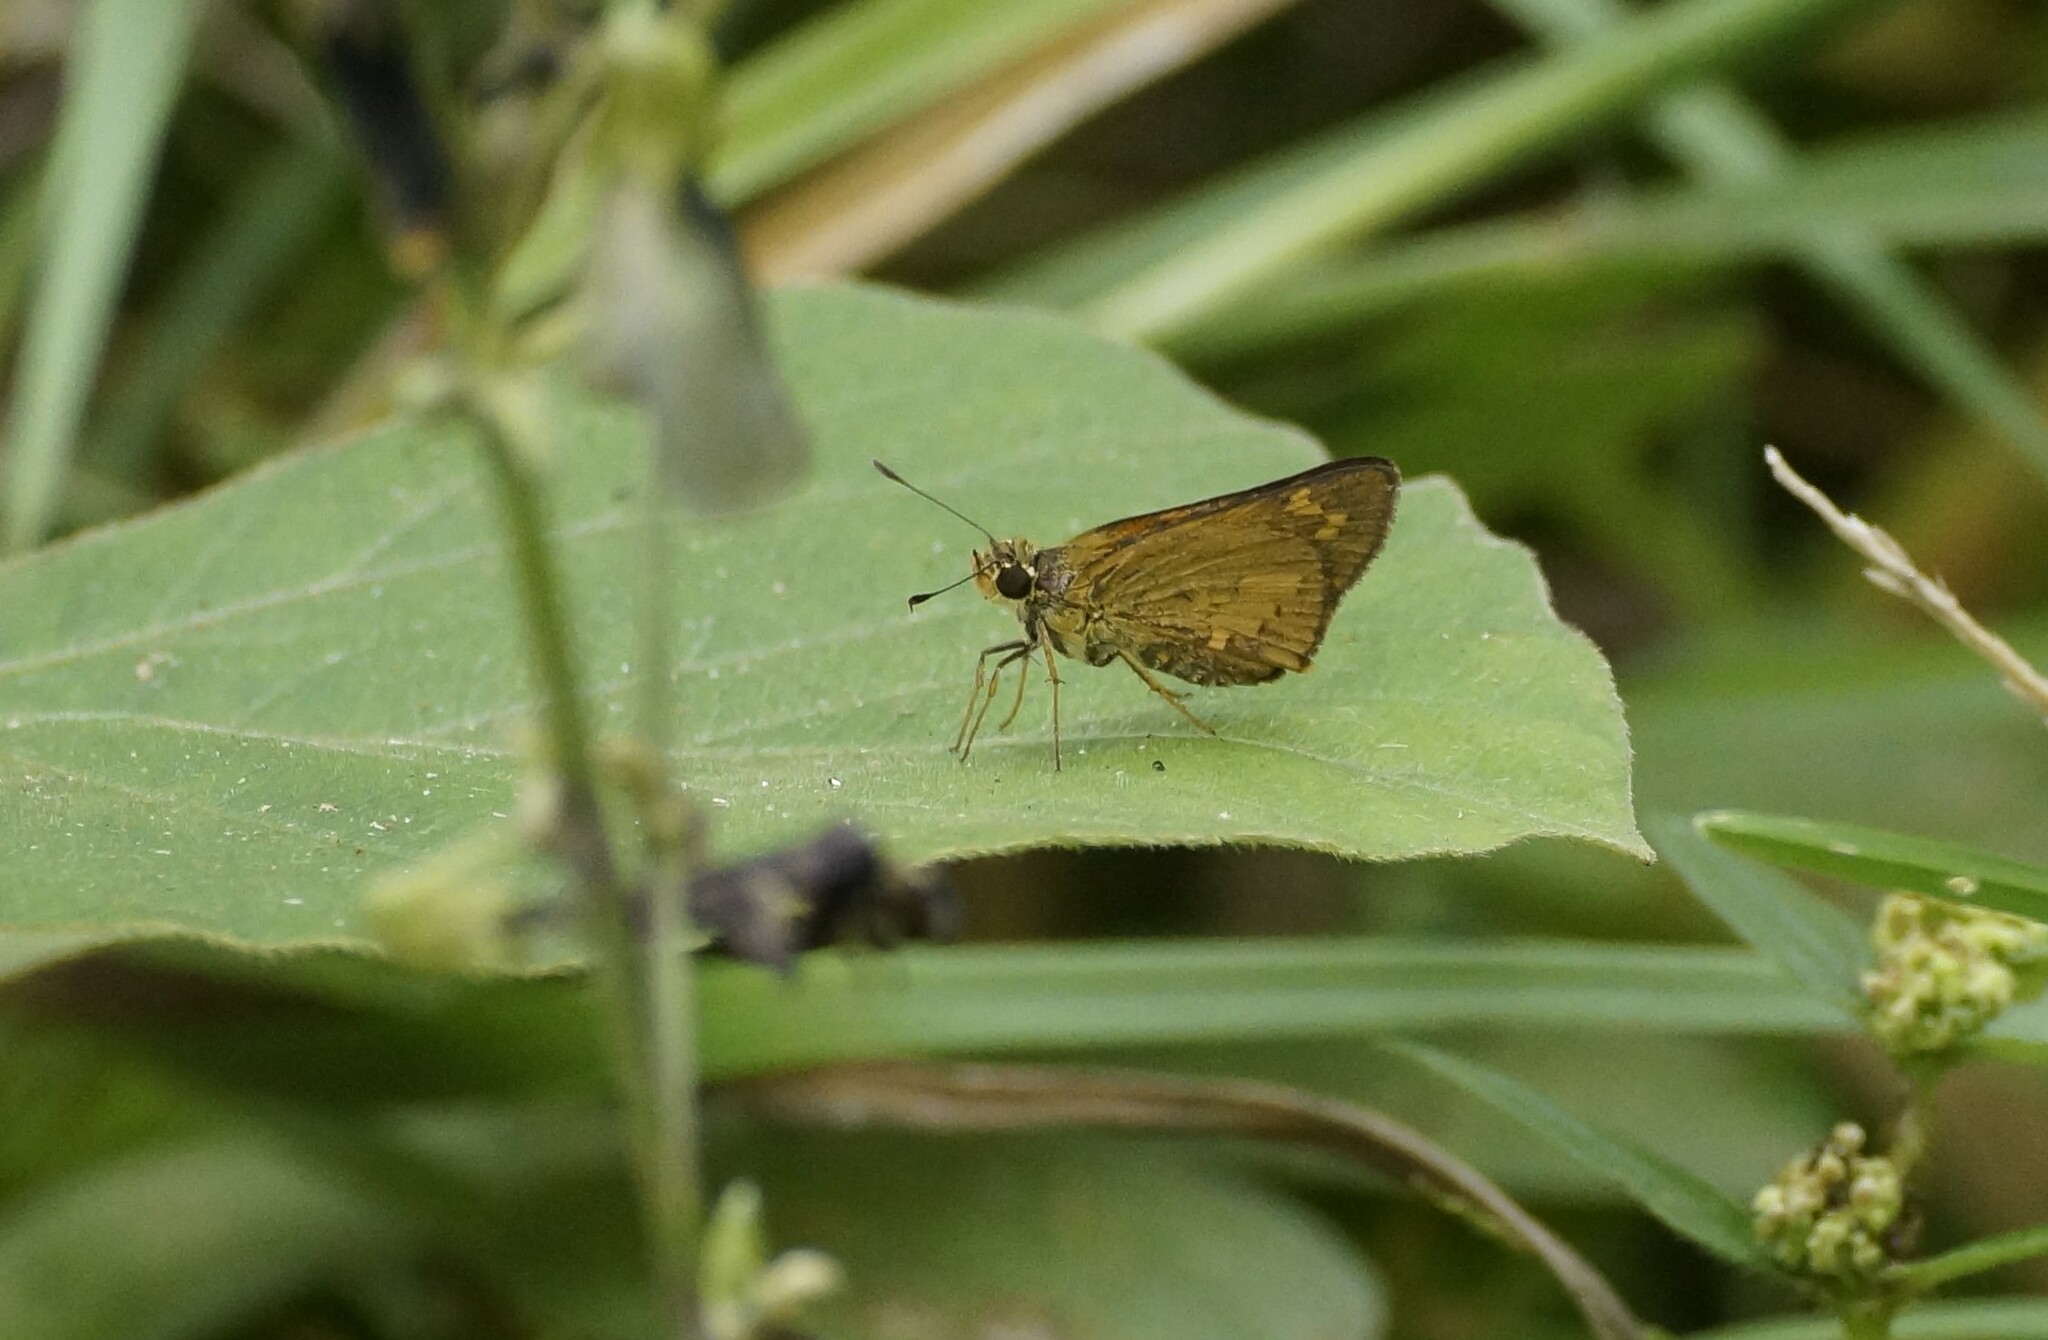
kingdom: Animalia
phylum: Arthropoda
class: Insecta
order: Lepidoptera
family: Hesperiidae
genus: Telicota
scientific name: Telicota paceka
